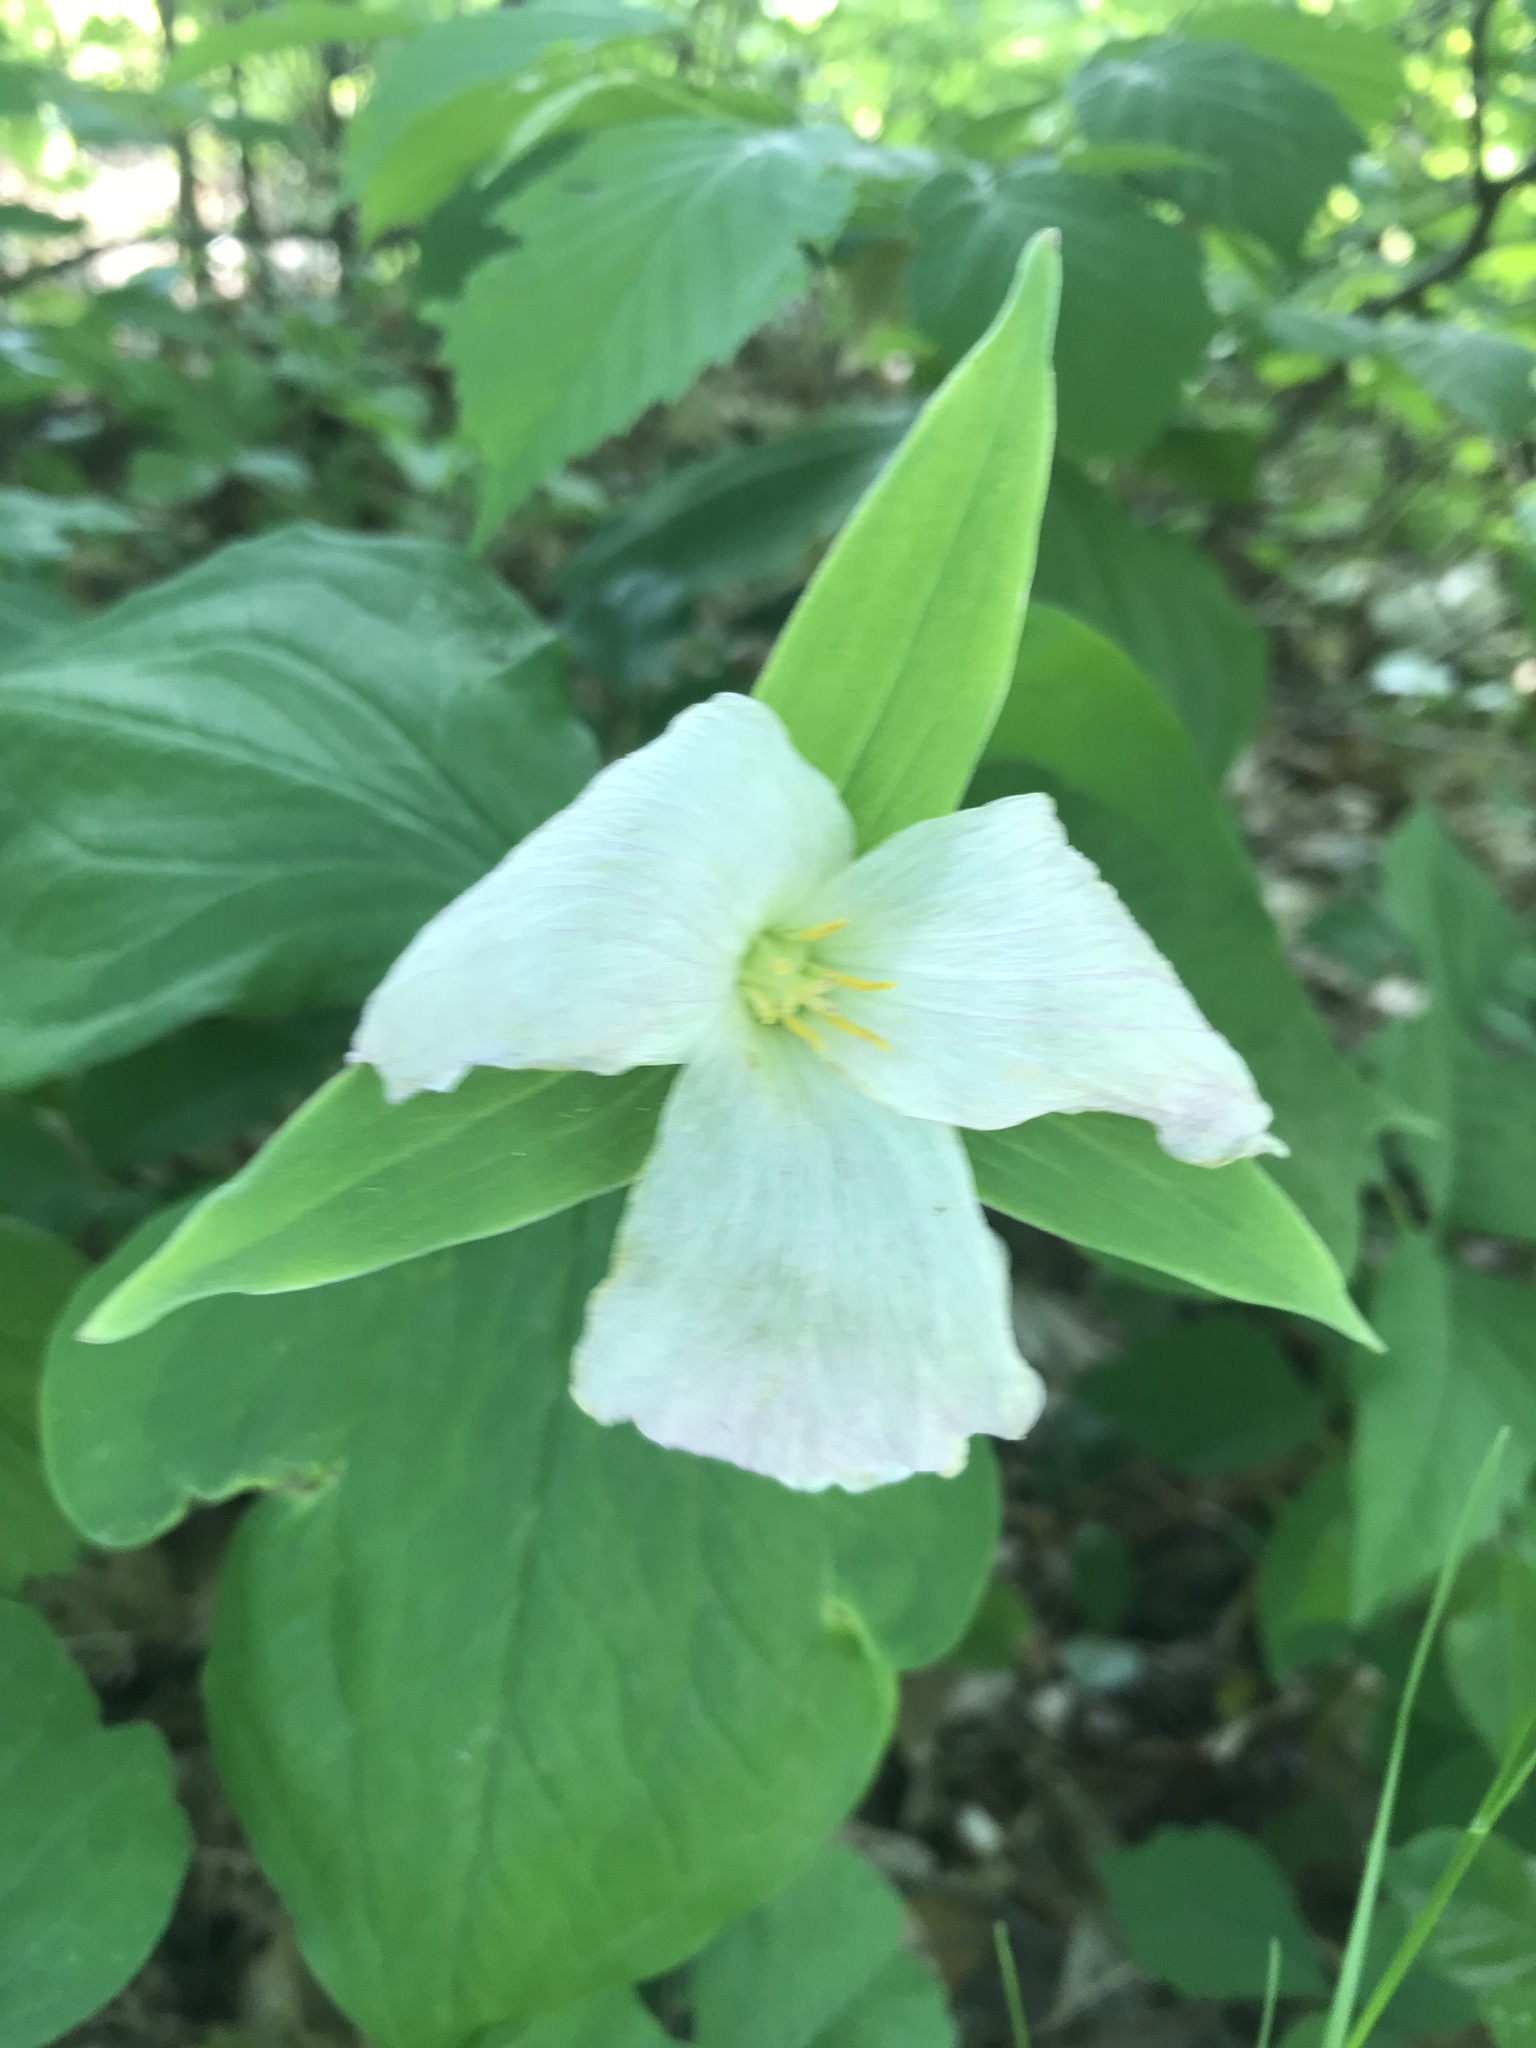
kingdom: Plantae
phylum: Tracheophyta
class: Liliopsida
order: Liliales
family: Melanthiaceae
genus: Trillium
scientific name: Trillium grandiflorum
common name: Great white trillium
